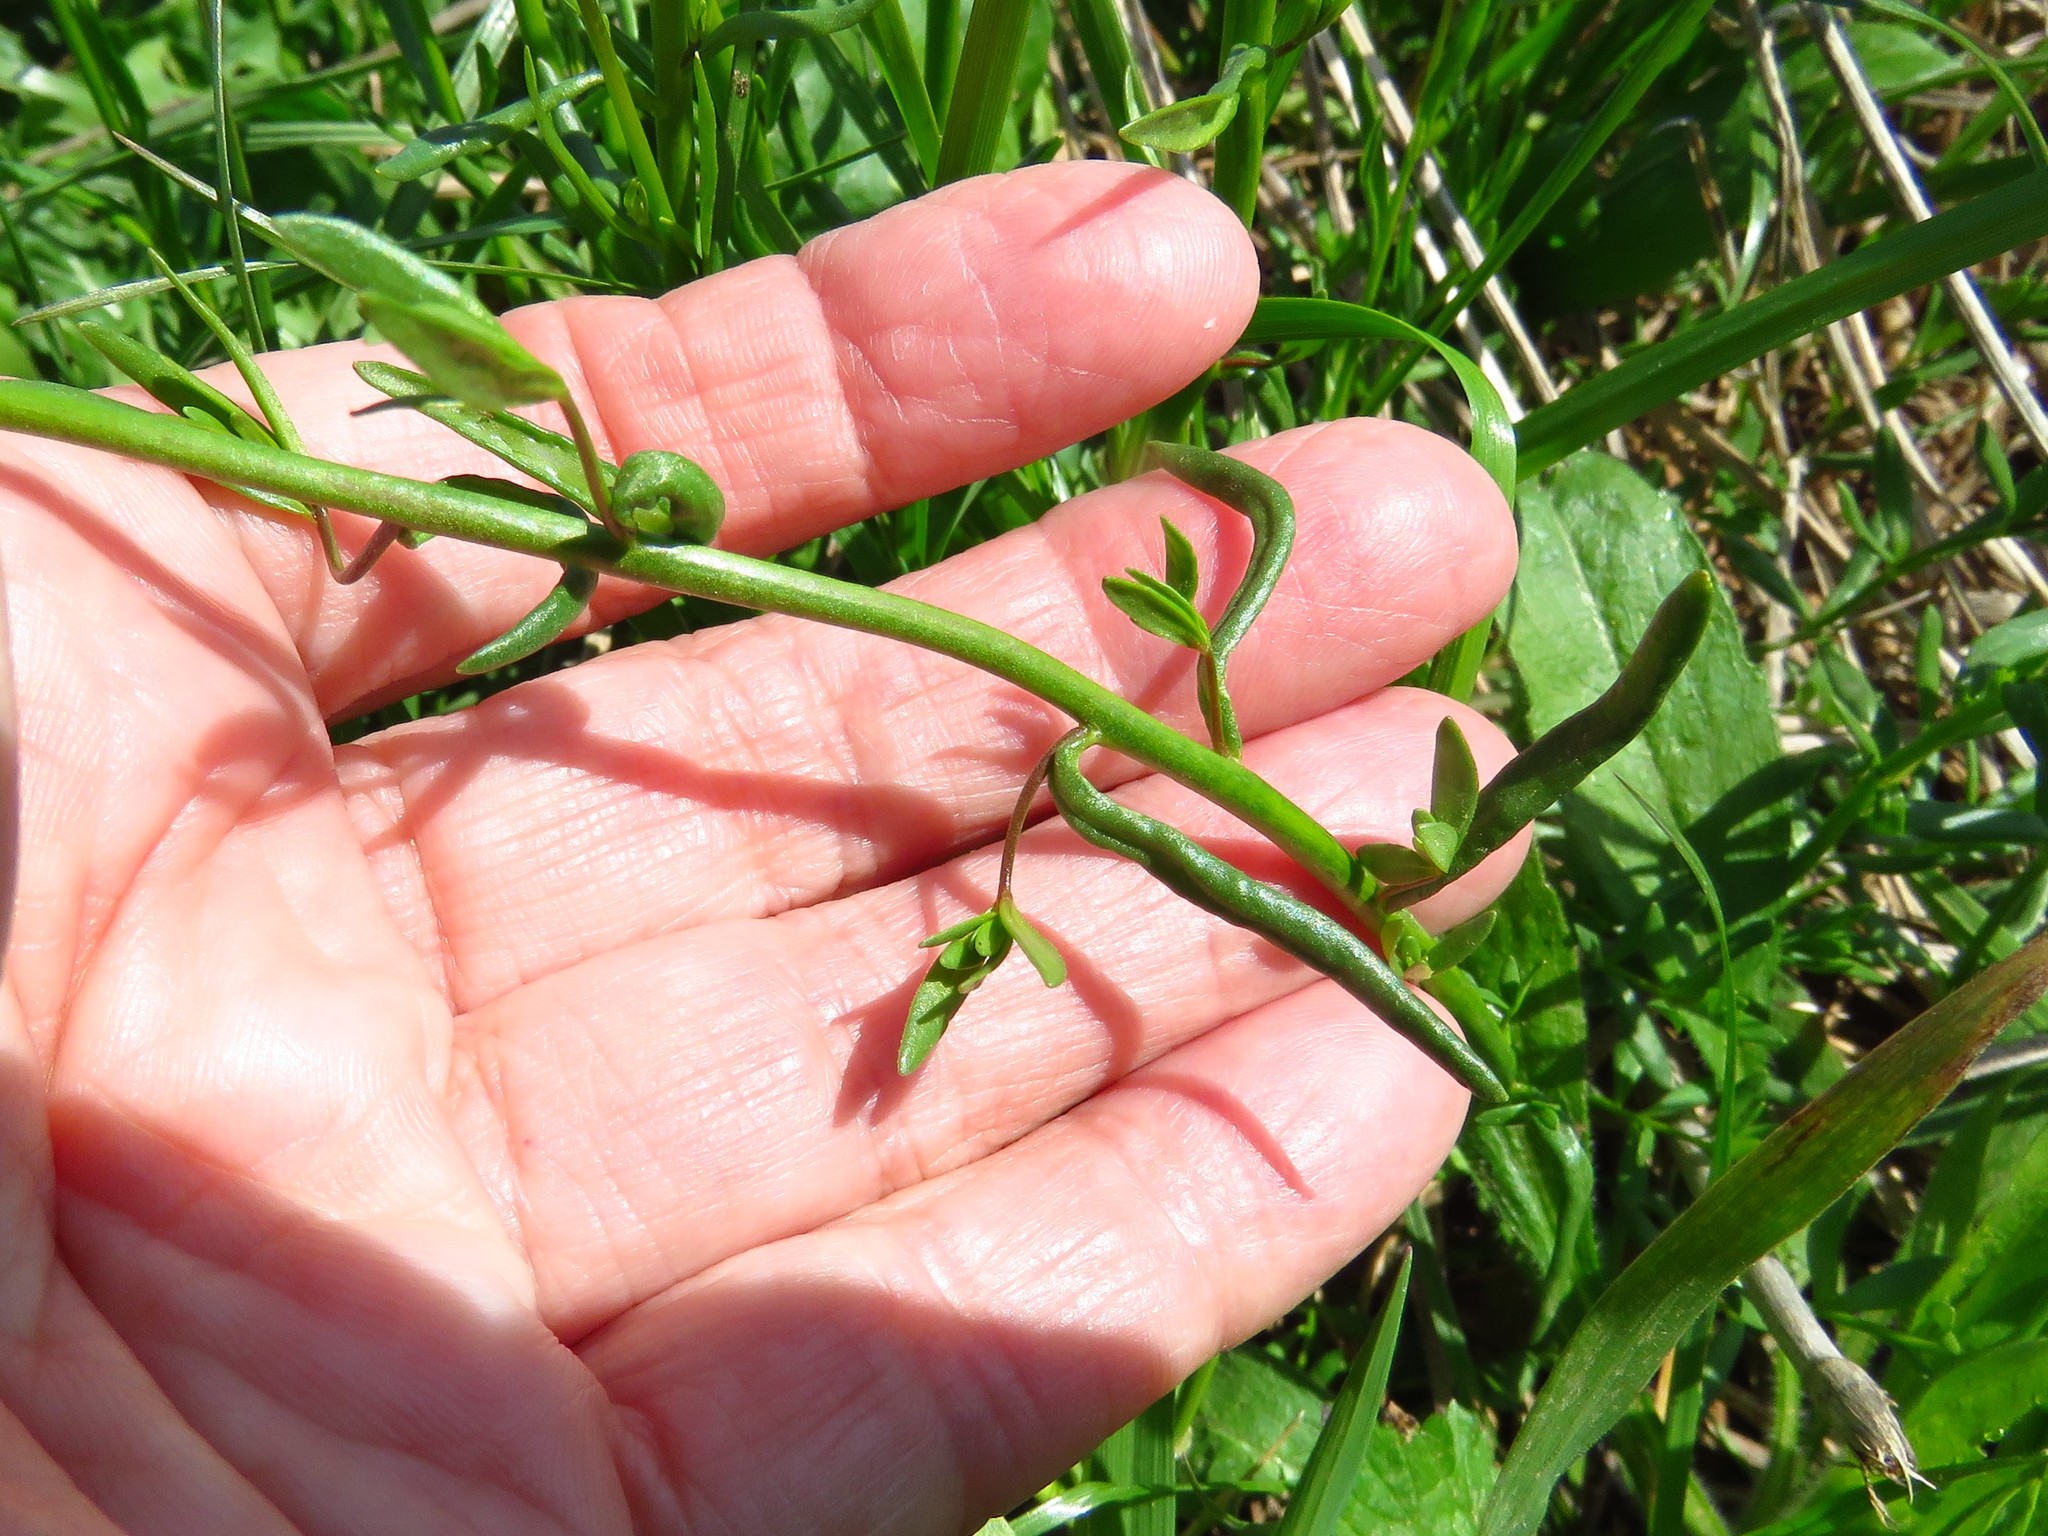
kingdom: Plantae
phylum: Tracheophyta
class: Magnoliopsida
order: Lamiales
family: Plantaginaceae
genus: Nuttallanthus
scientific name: Nuttallanthus texanus
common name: Texas toadflax
